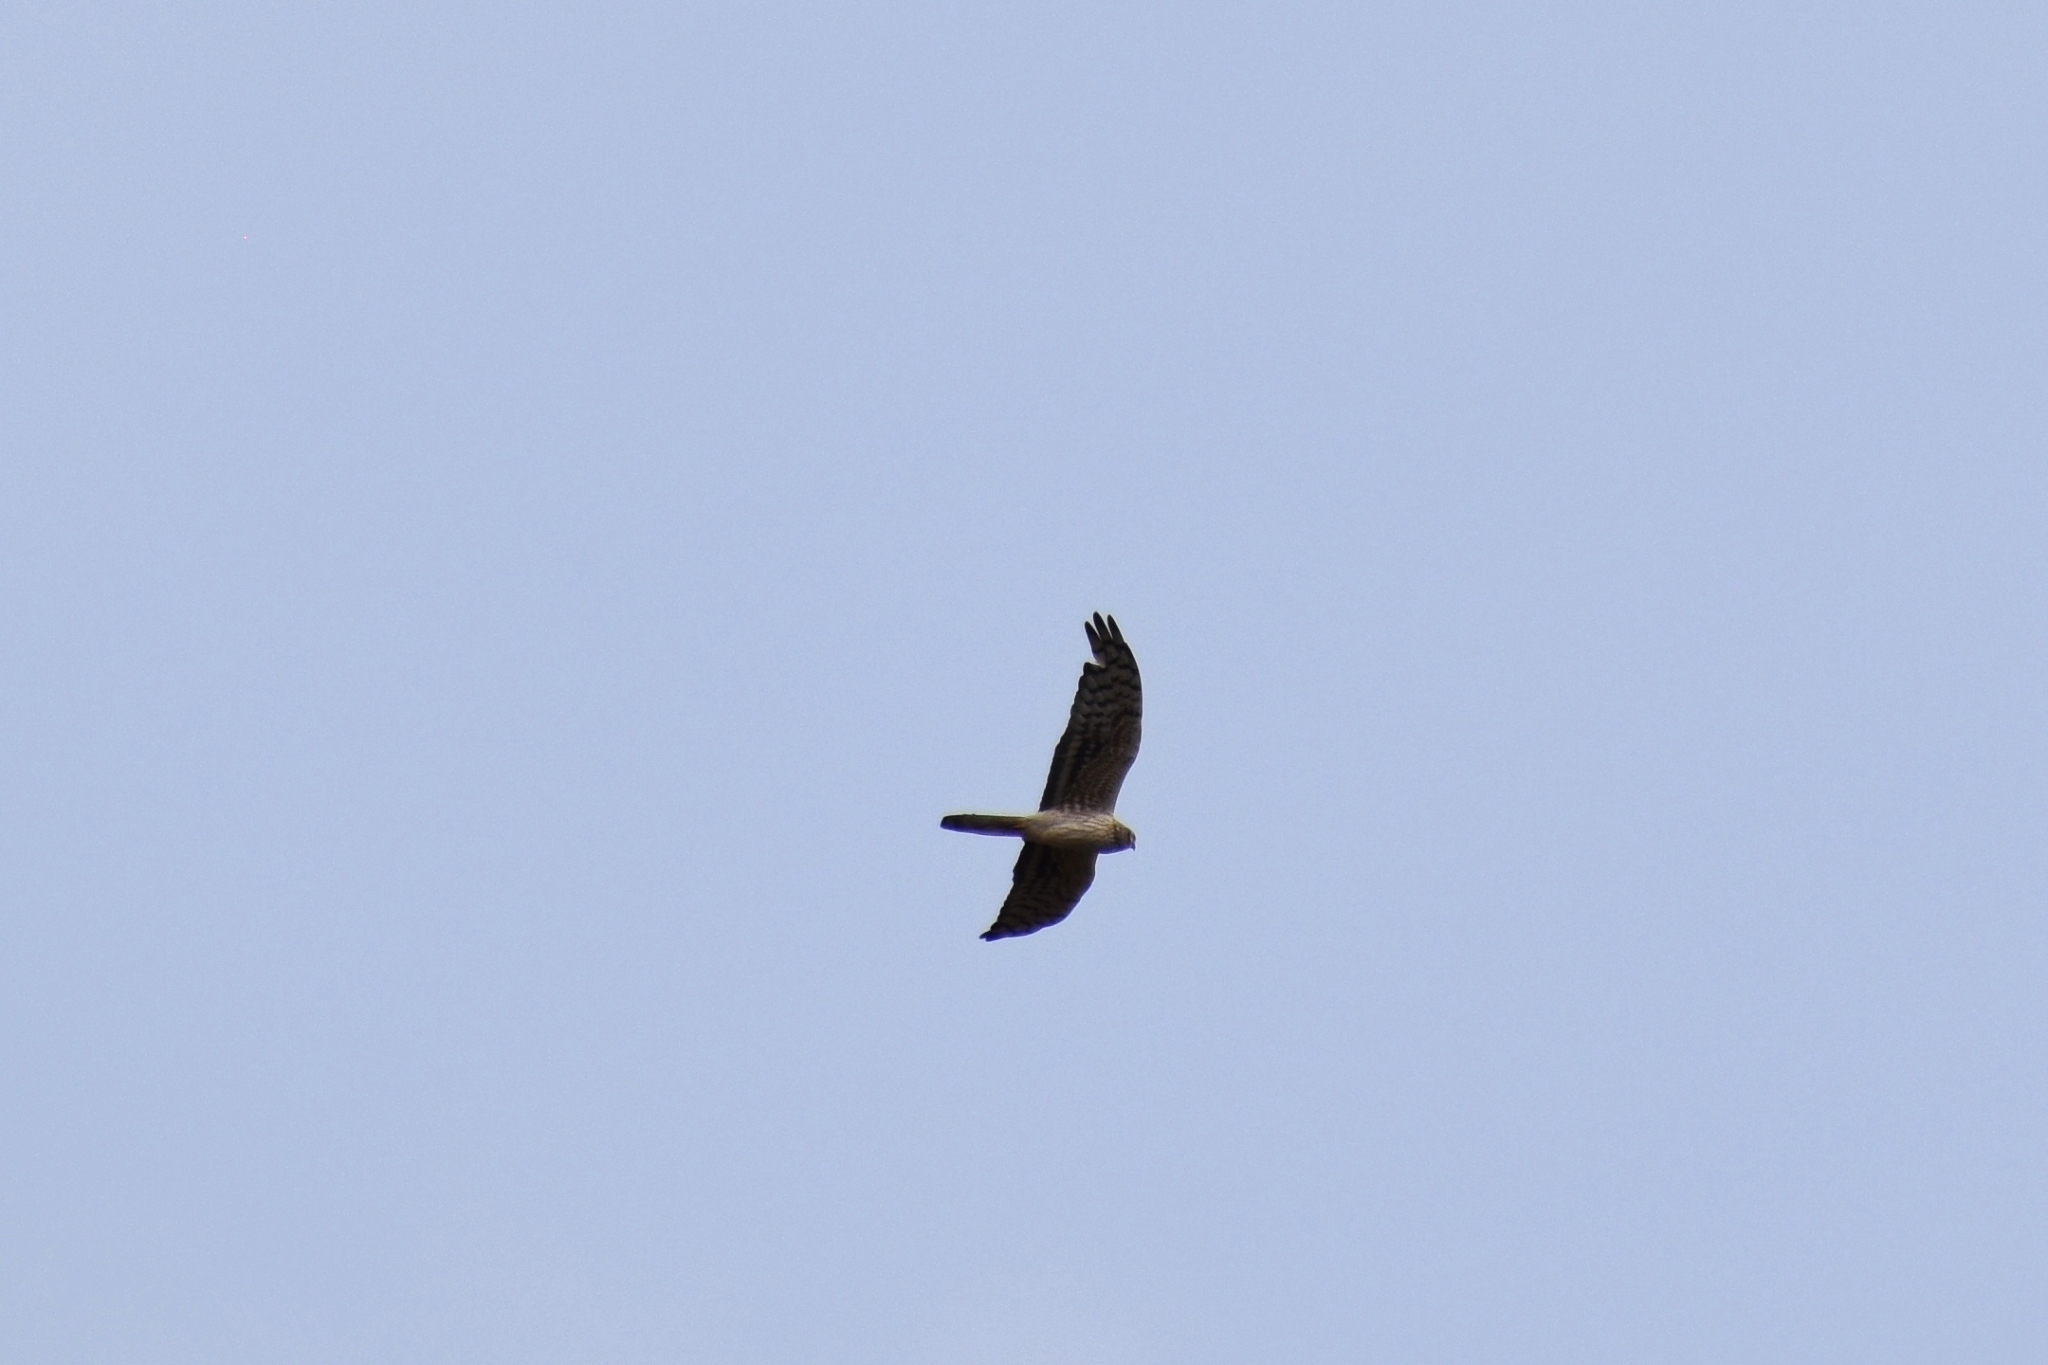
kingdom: Animalia
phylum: Chordata
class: Aves
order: Accipitriformes
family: Accipitridae
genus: Circus
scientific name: Circus pygargus
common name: Montagu's harrier
